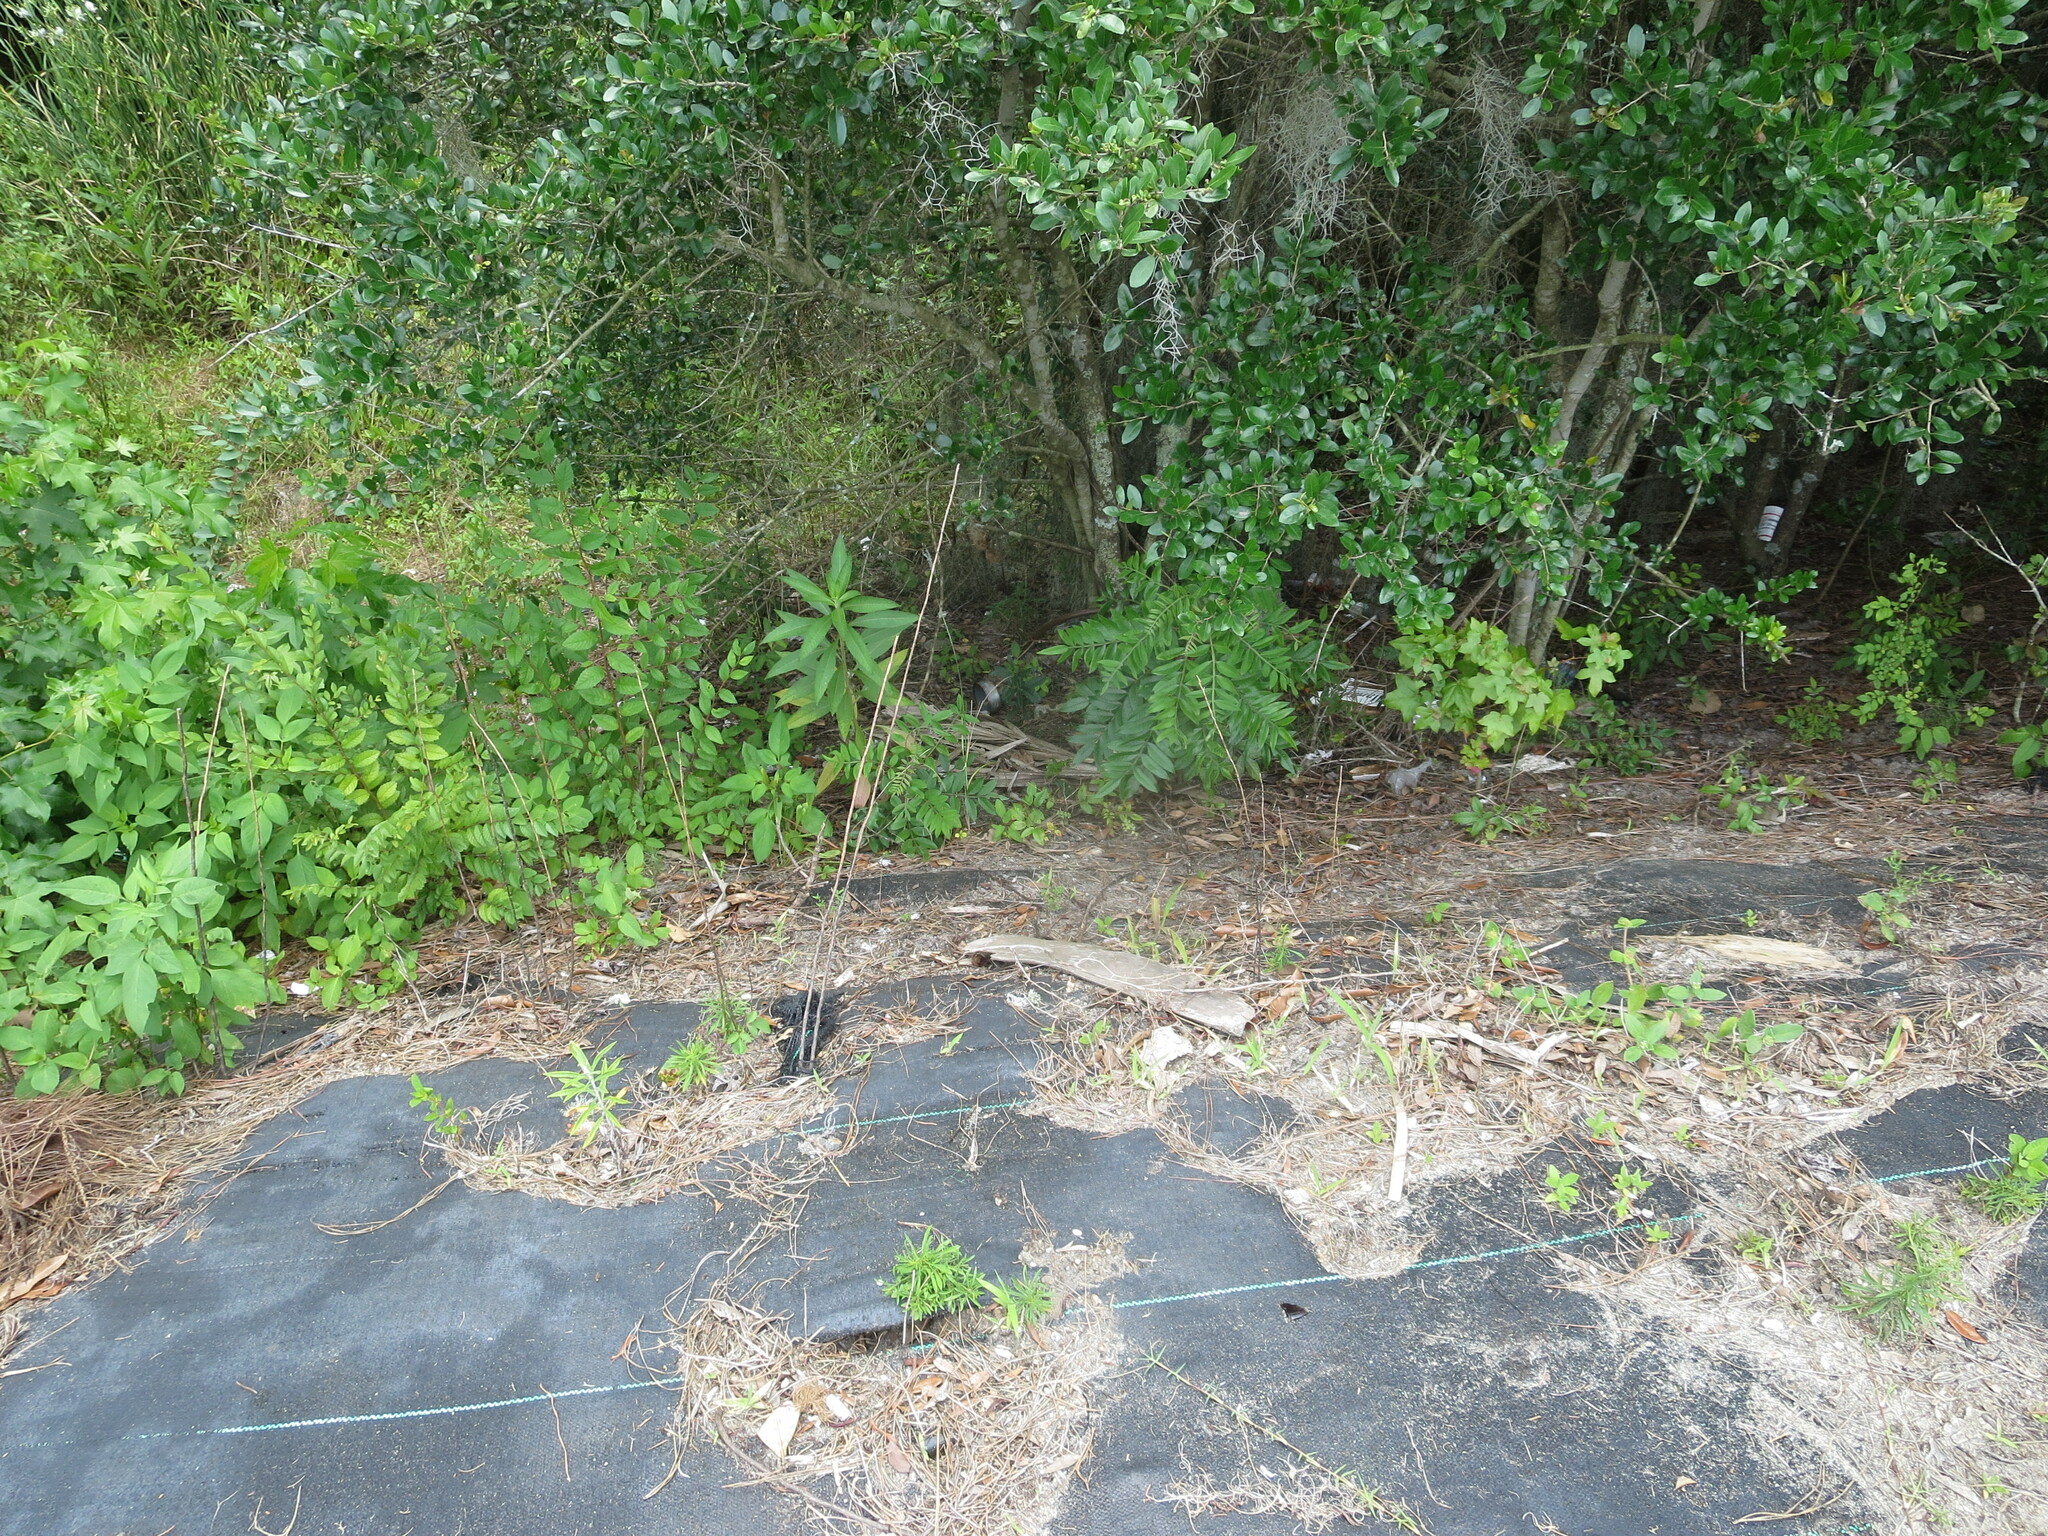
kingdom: Plantae
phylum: Tracheophyta
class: Magnoliopsida
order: Sapindales
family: Anacardiaceae
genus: Rhus
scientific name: Rhus copallina
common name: Shining sumac
